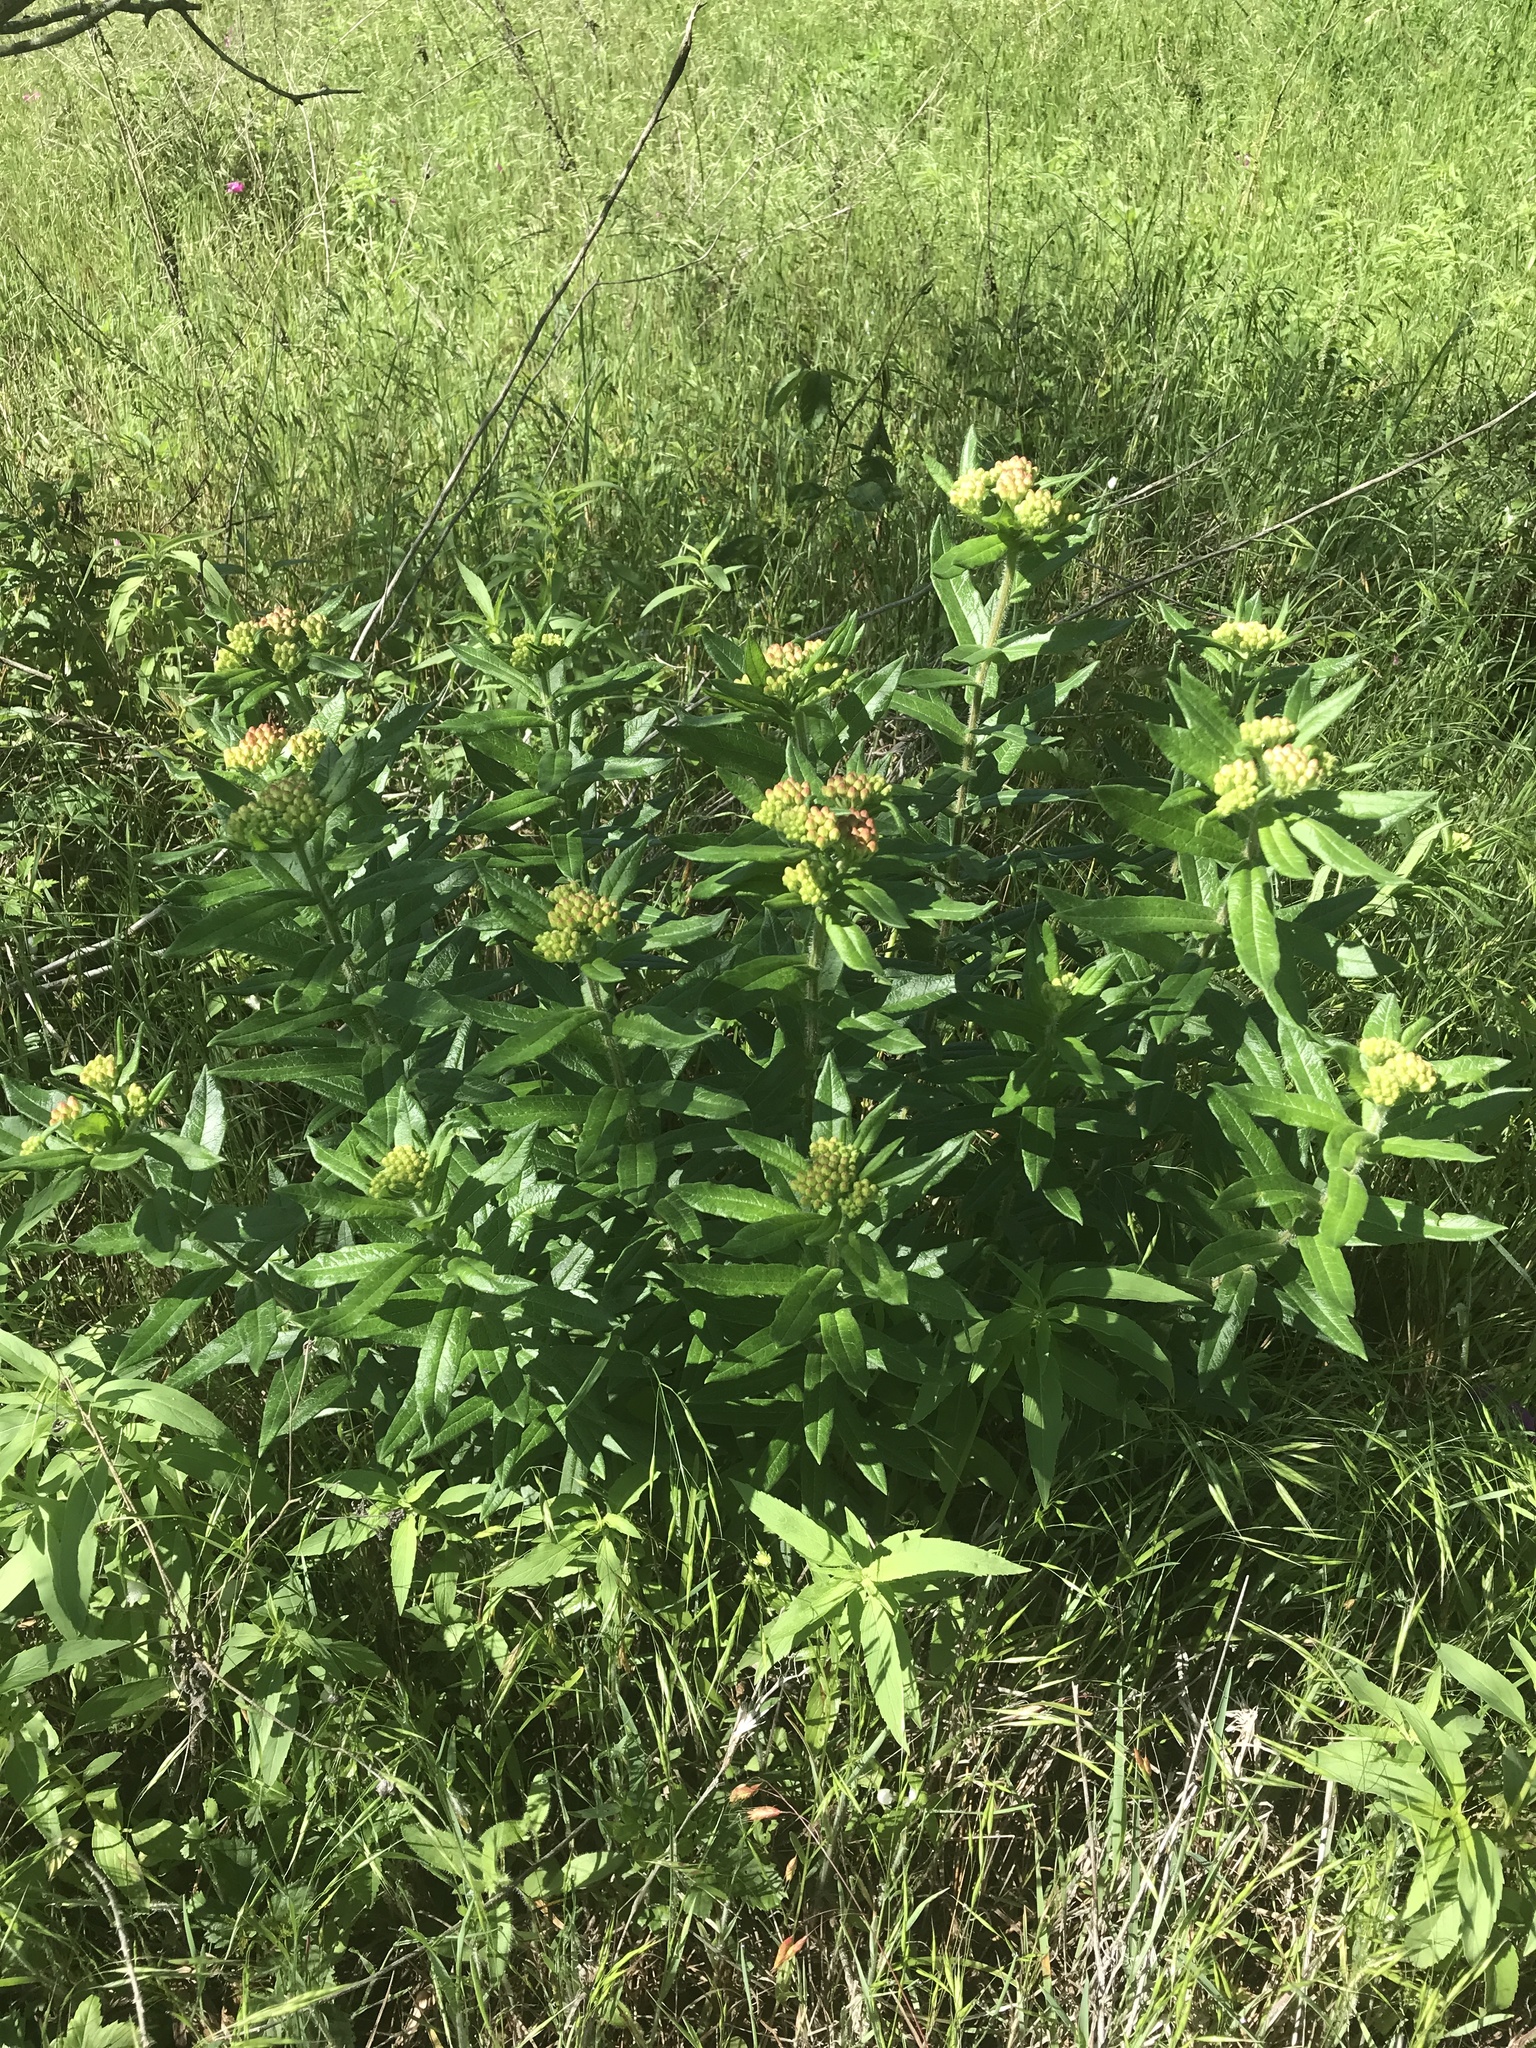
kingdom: Plantae
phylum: Tracheophyta
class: Magnoliopsida
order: Gentianales
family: Apocynaceae
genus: Asclepias
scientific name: Asclepias tuberosa
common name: Butterfly milkweed
